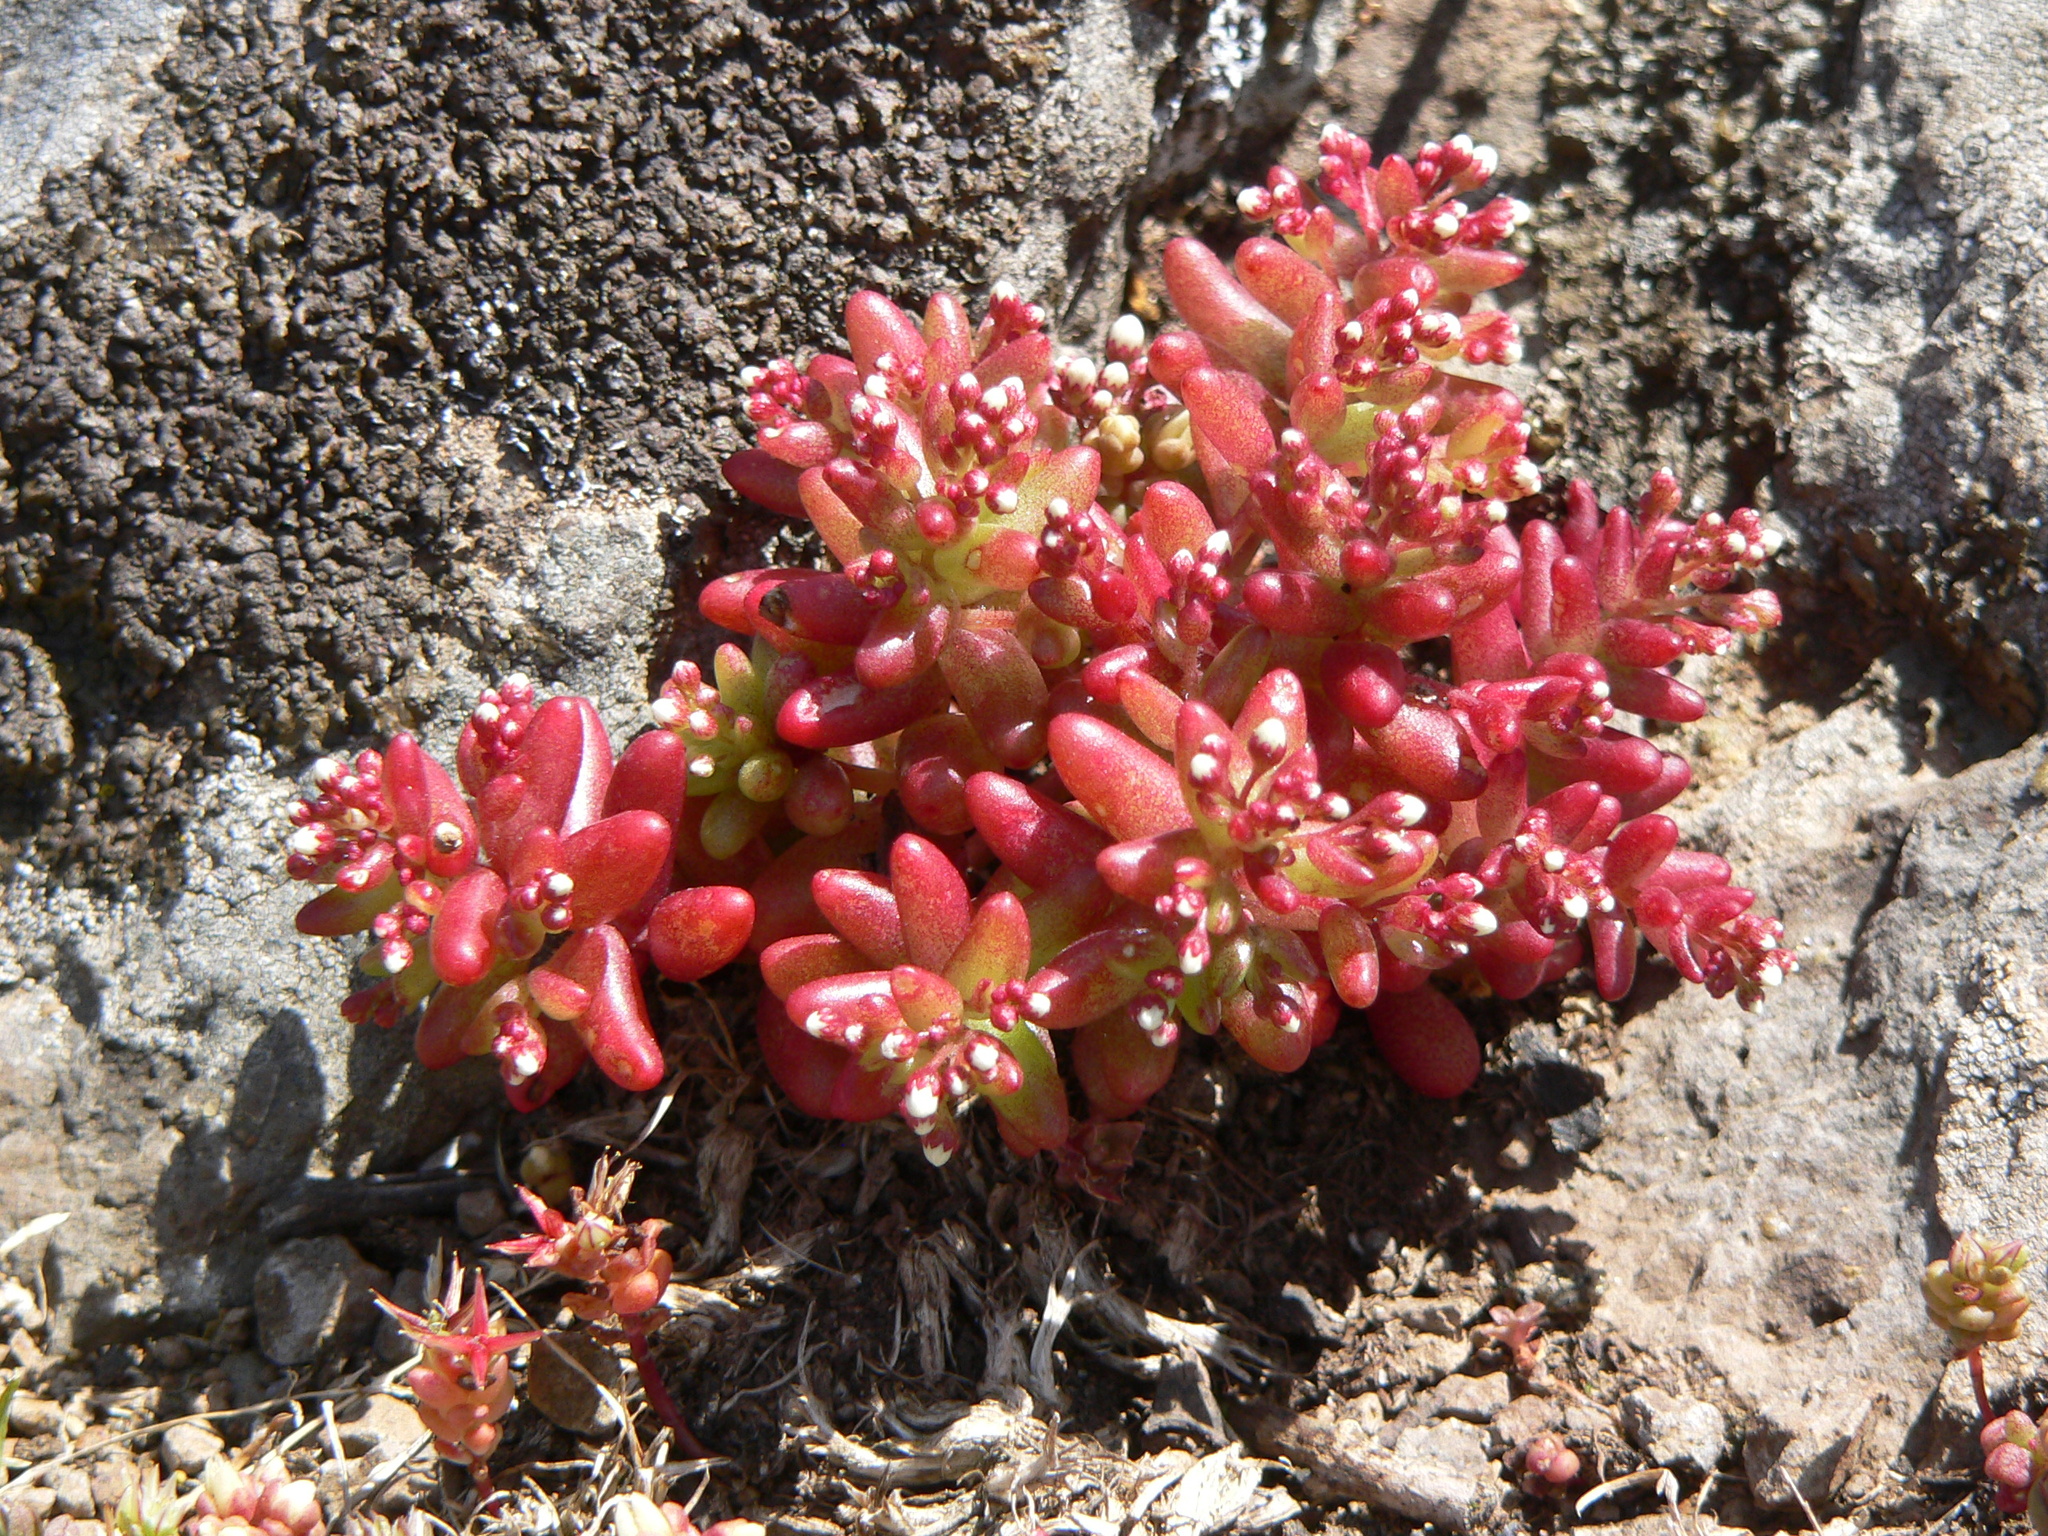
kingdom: Plantae
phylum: Tracheophyta
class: Magnoliopsida
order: Saxifragales
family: Crassulaceae
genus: Sedum
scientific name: Sedum caeruleum
